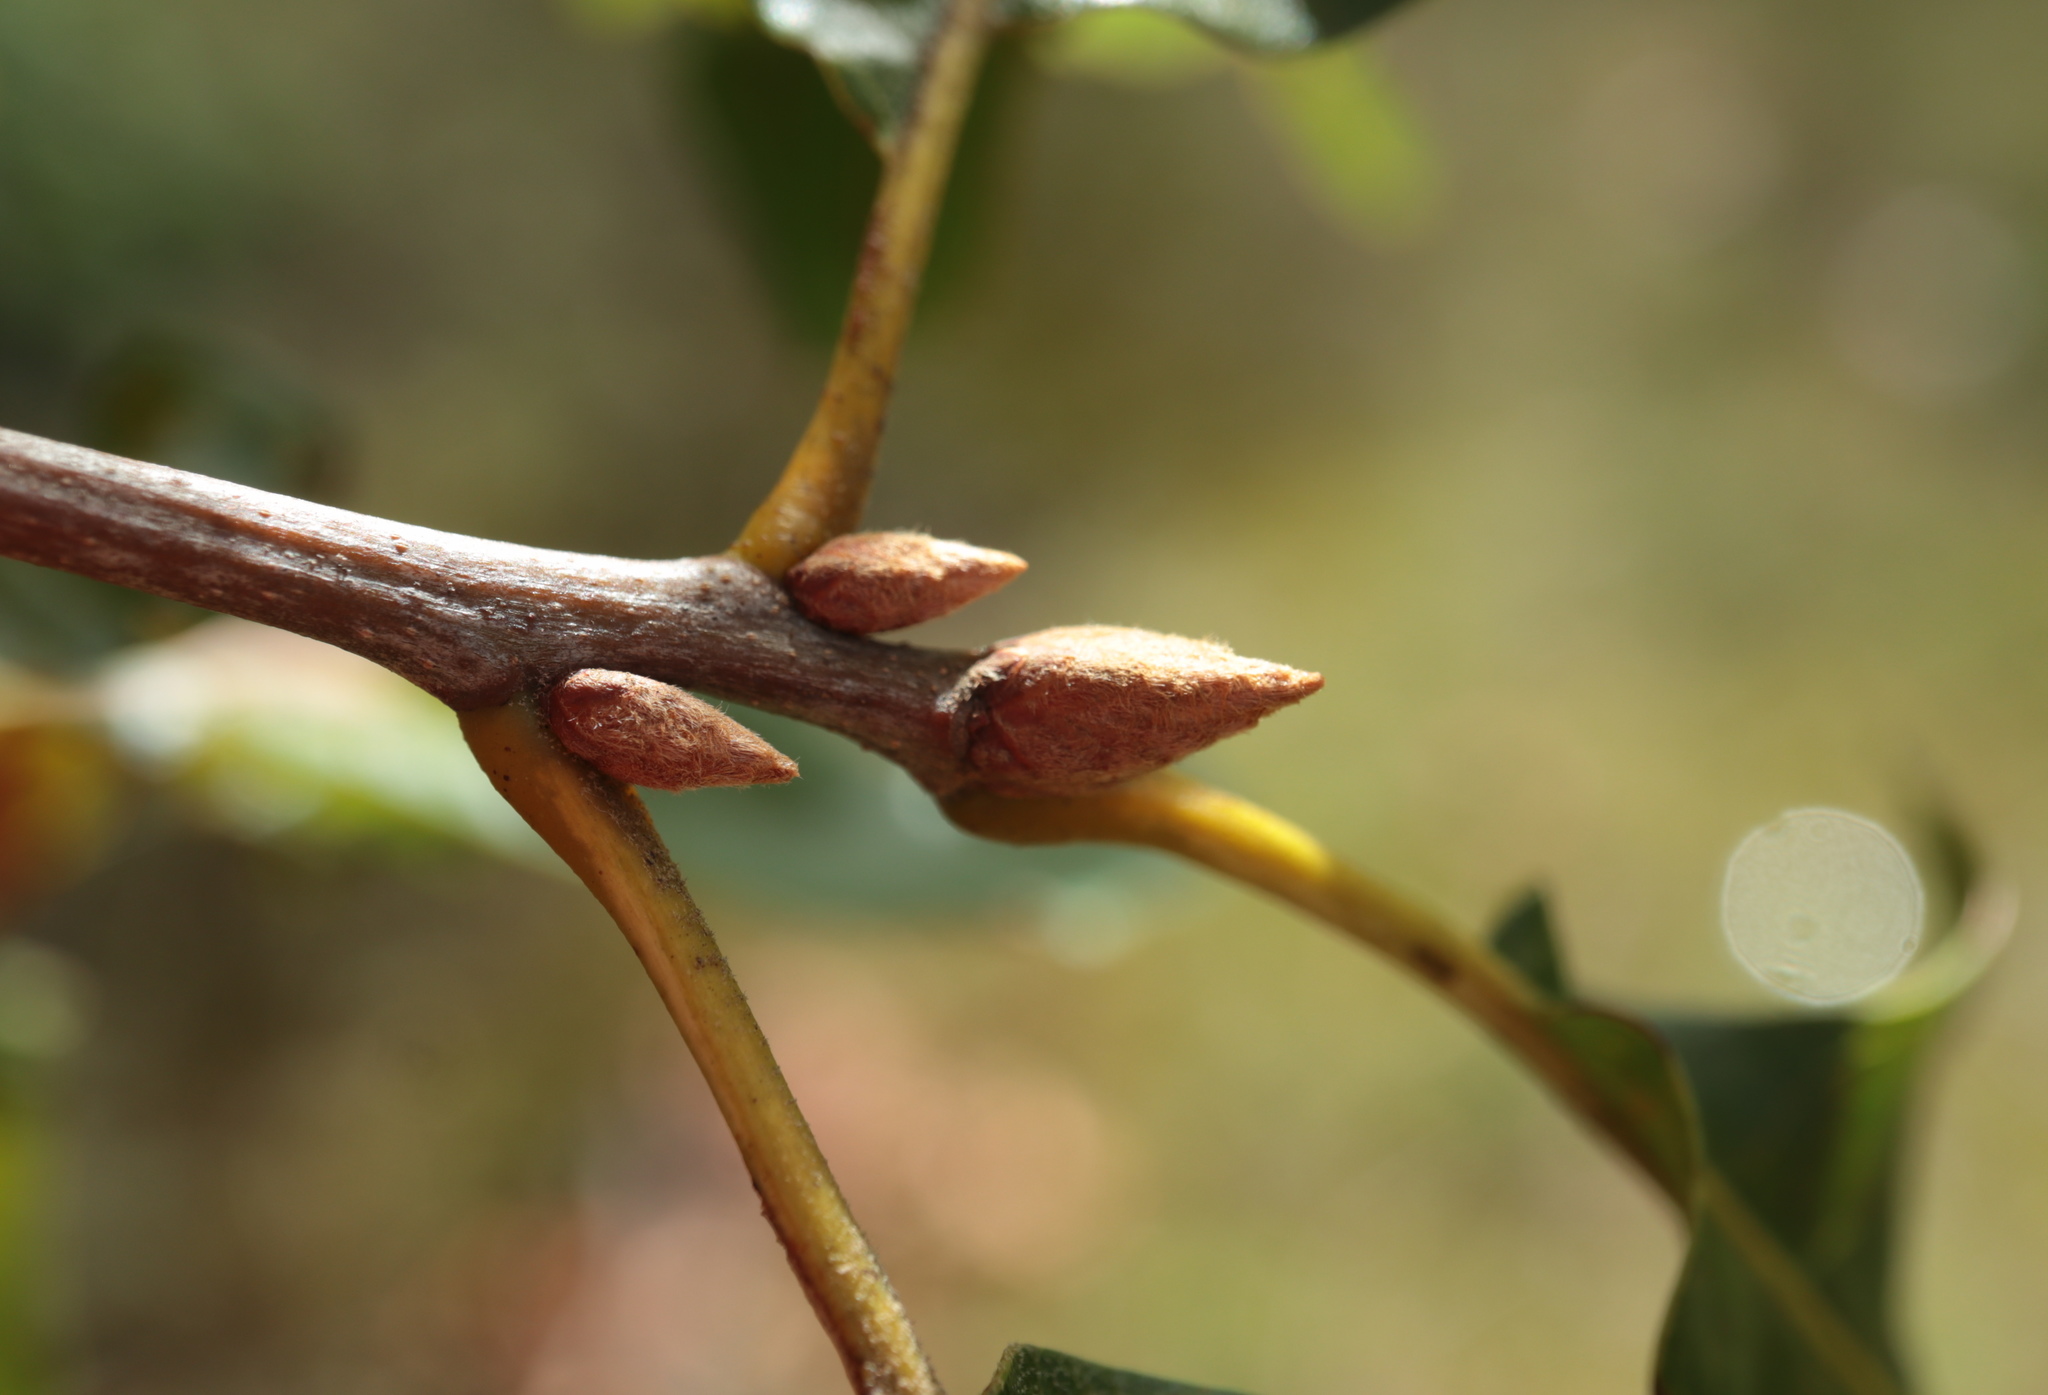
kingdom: Plantae
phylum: Tracheophyta
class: Magnoliopsida
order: Fagales
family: Fagaceae
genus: Quercus
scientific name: Quercus velutina
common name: Black oak
